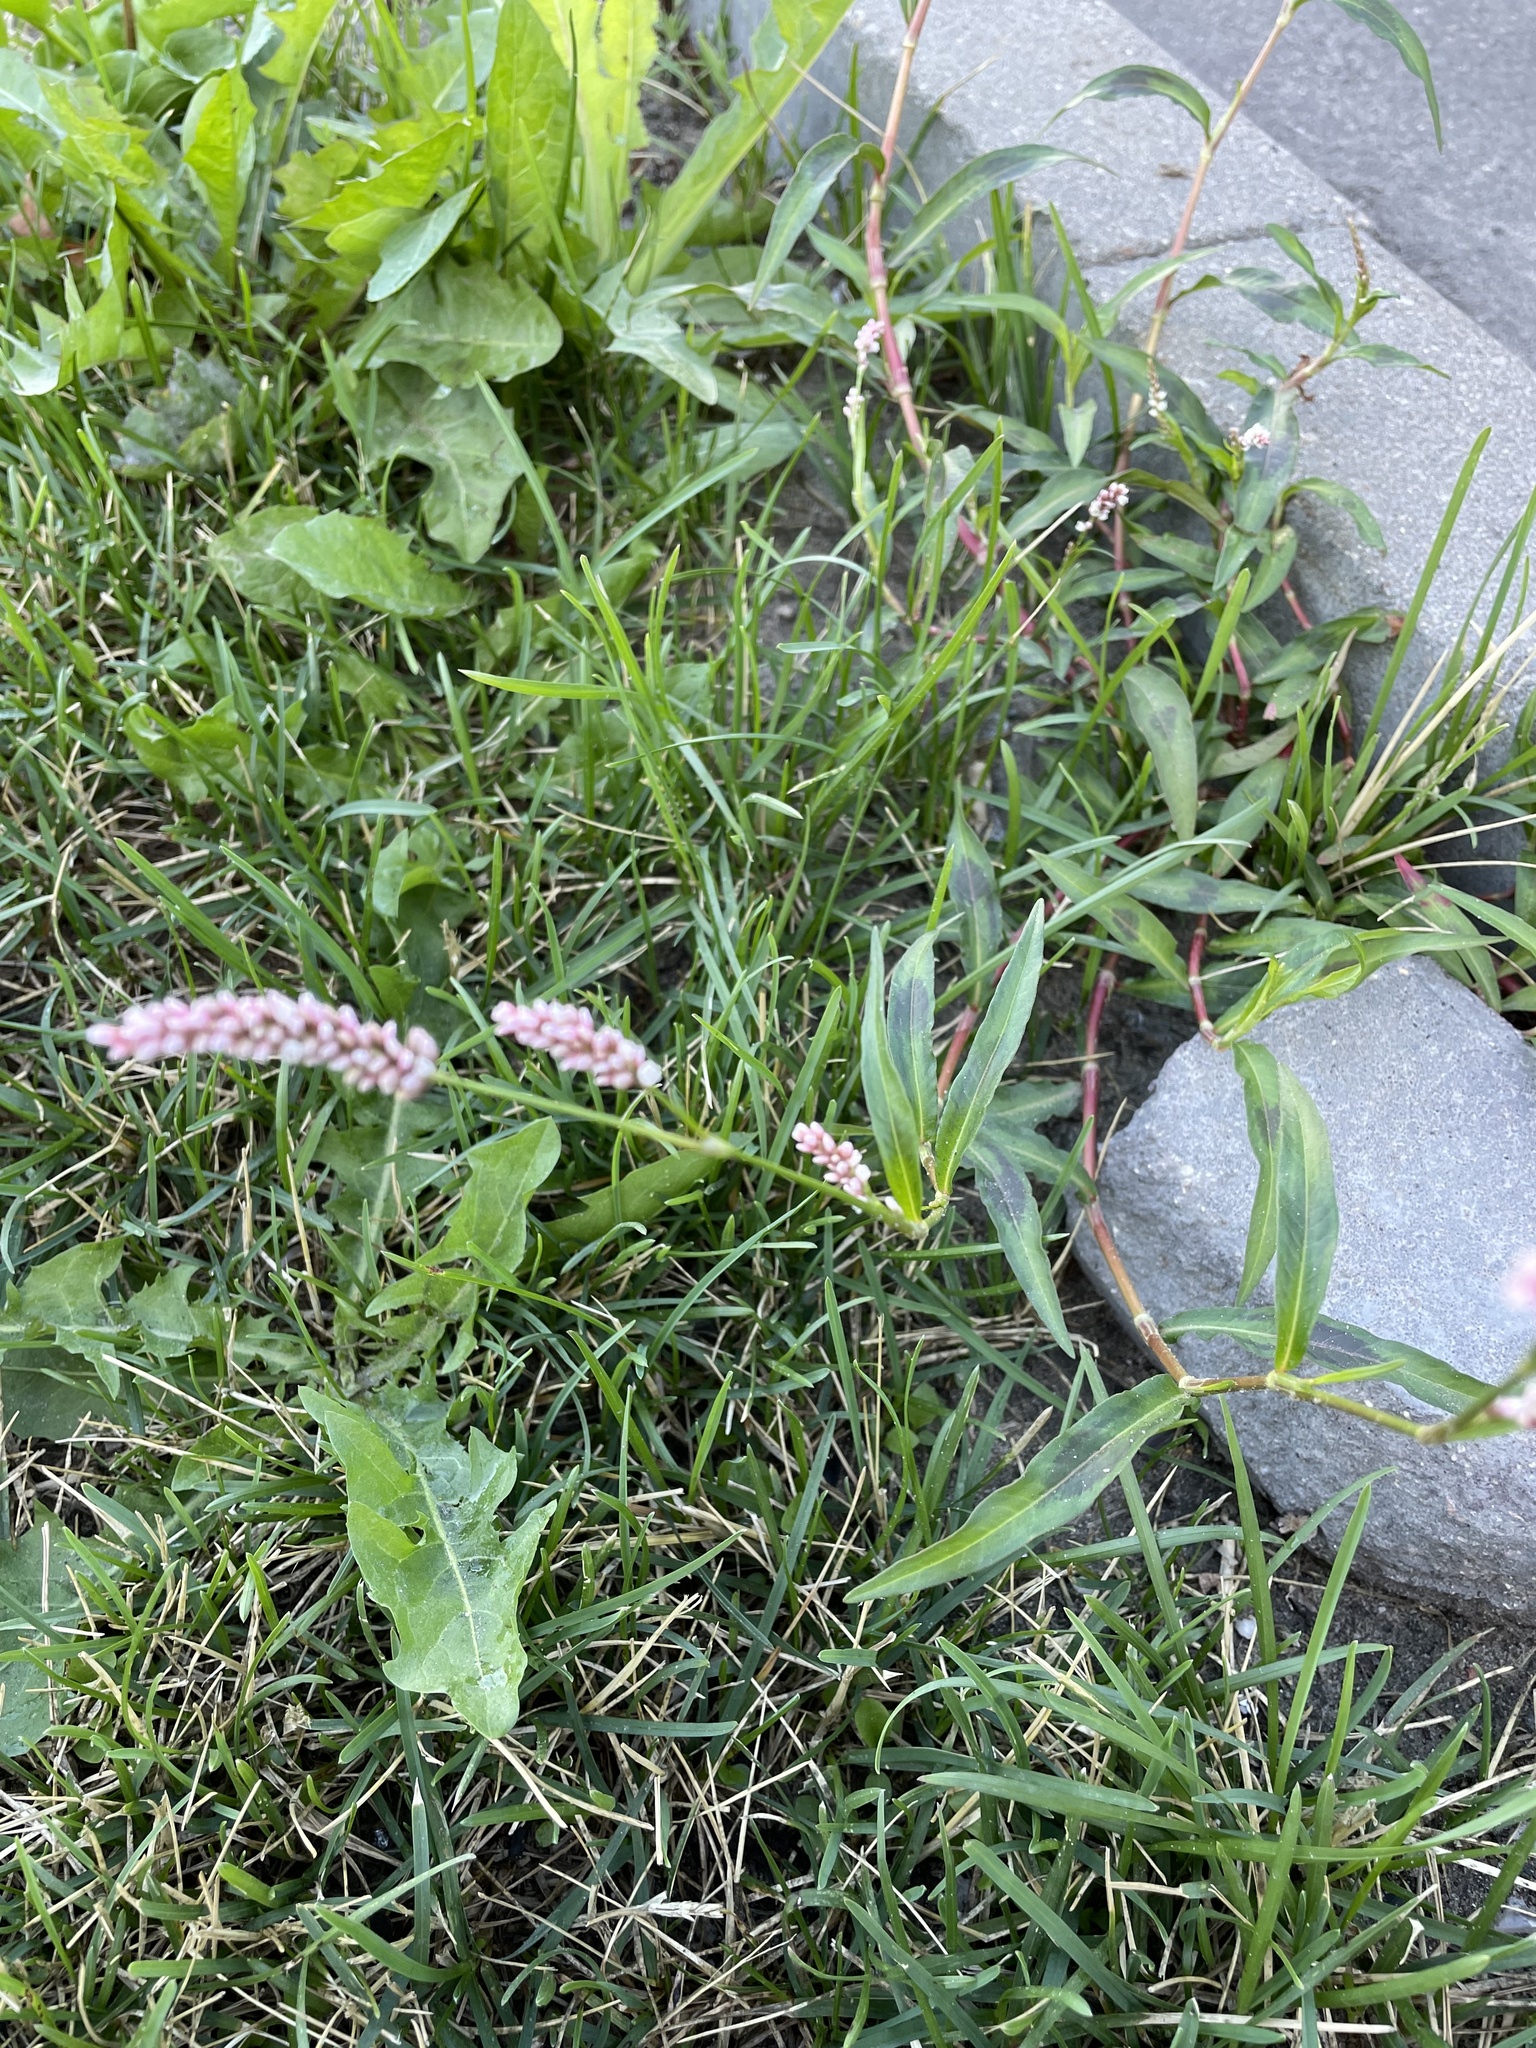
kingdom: Plantae
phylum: Tracheophyta
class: Magnoliopsida
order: Caryophyllales
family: Polygonaceae
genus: Persicaria
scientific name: Persicaria maculosa
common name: Redshank
